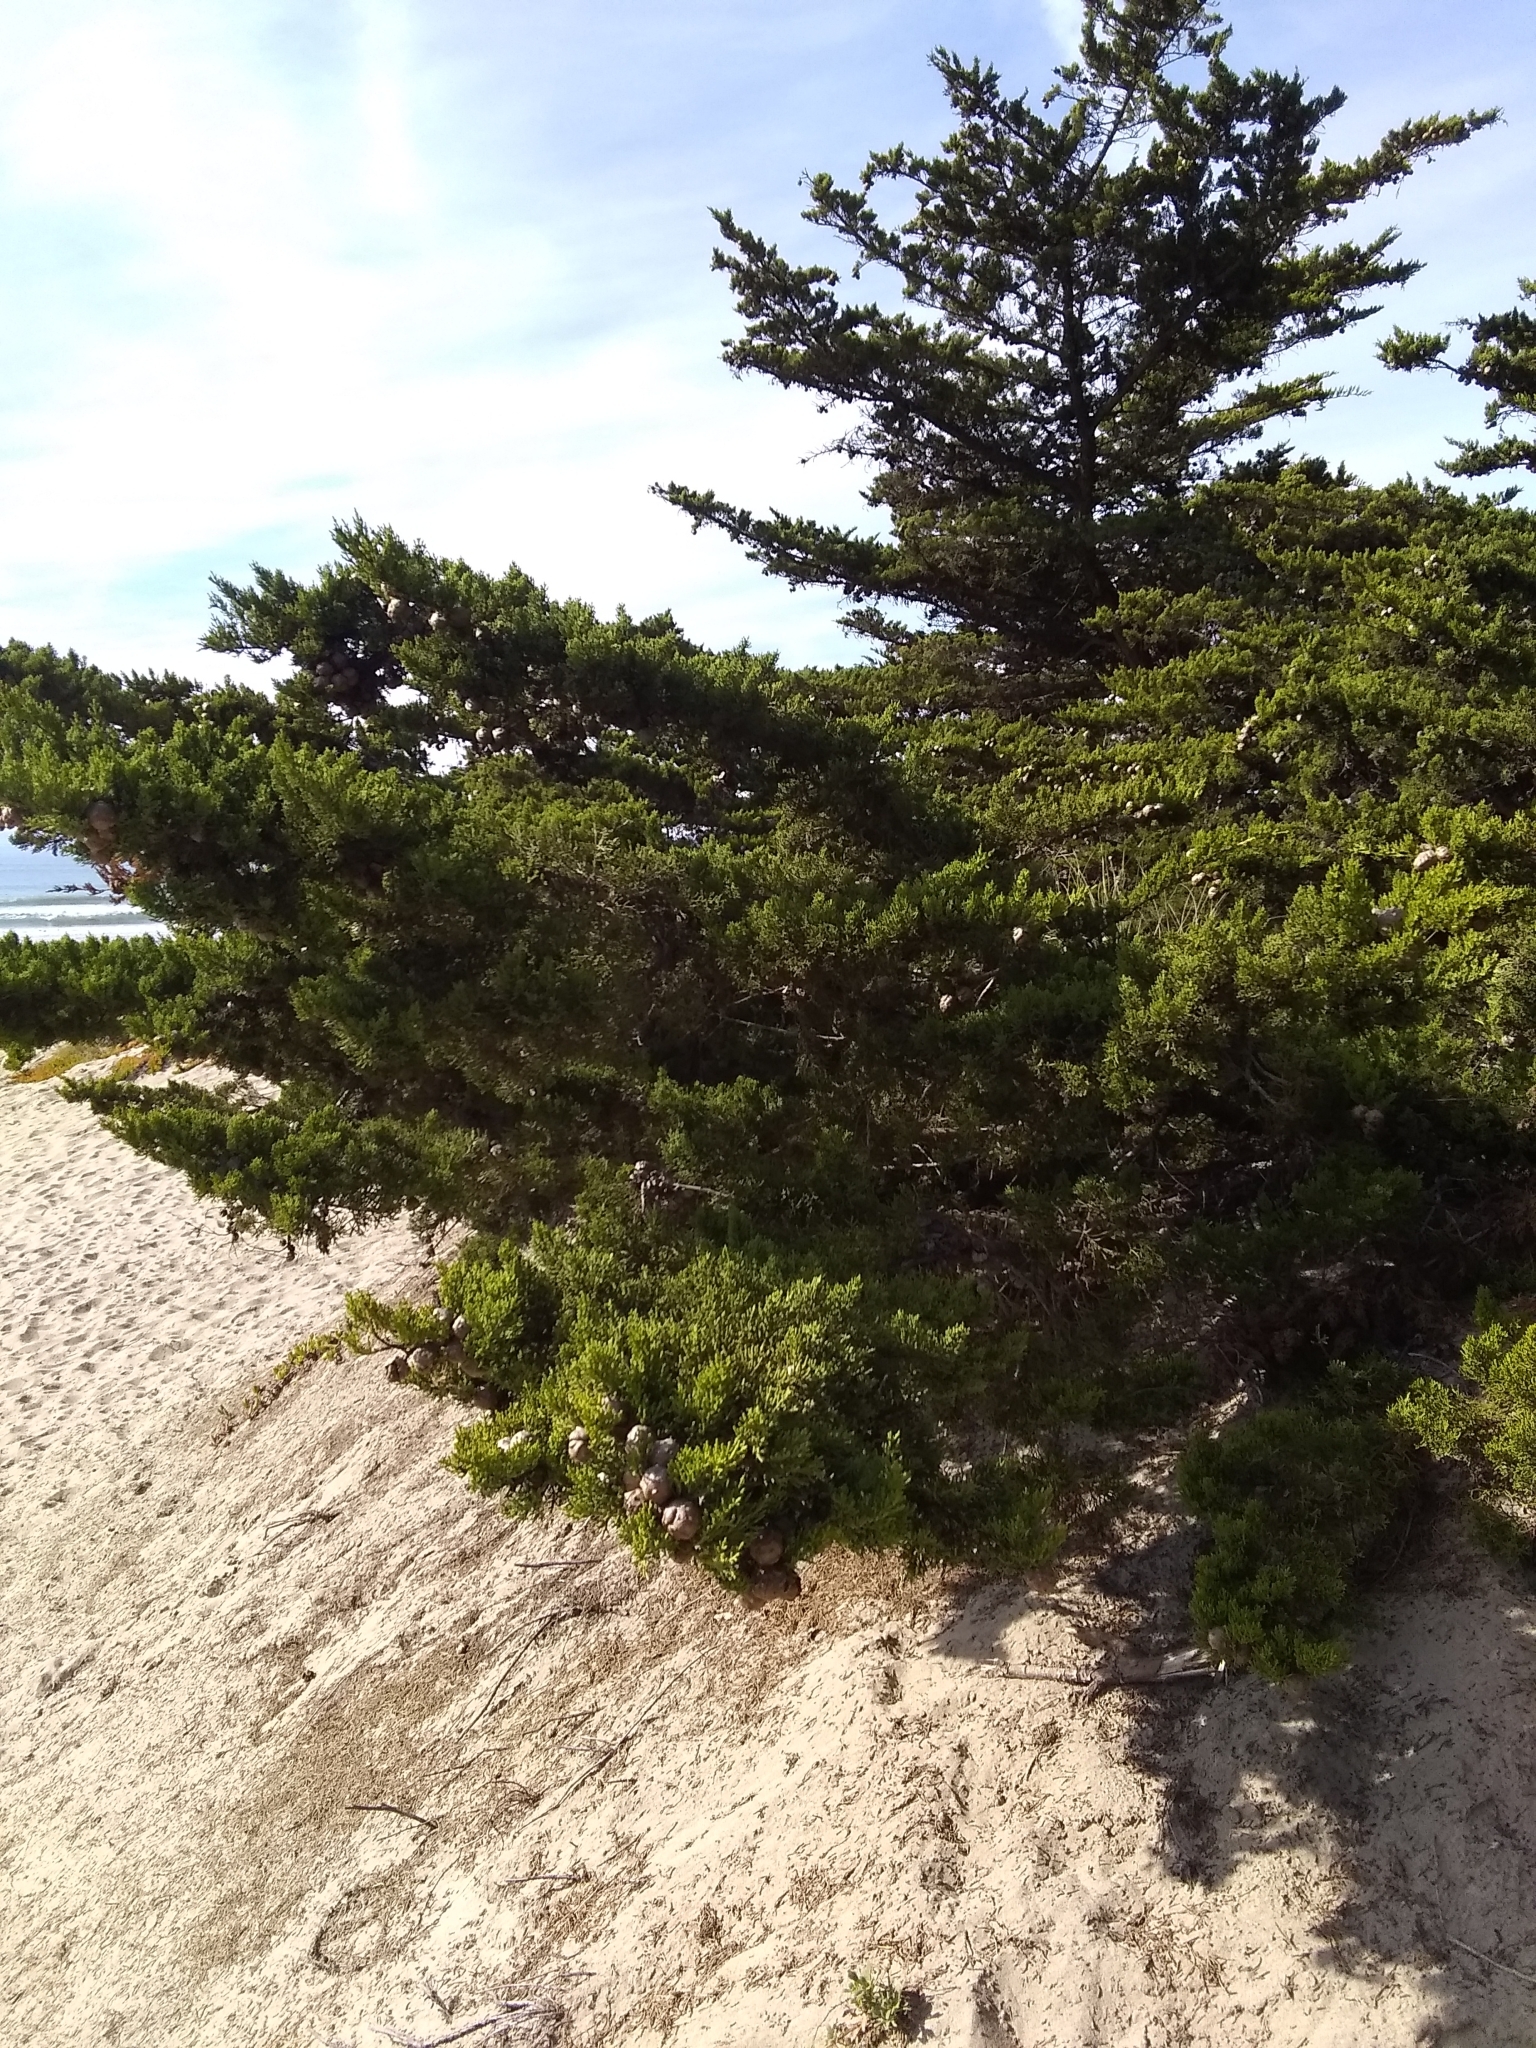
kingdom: Plantae
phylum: Tracheophyta
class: Pinopsida
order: Pinales
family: Cupressaceae
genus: Cupressus
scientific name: Cupressus macrocarpa
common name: Monterey cypress
